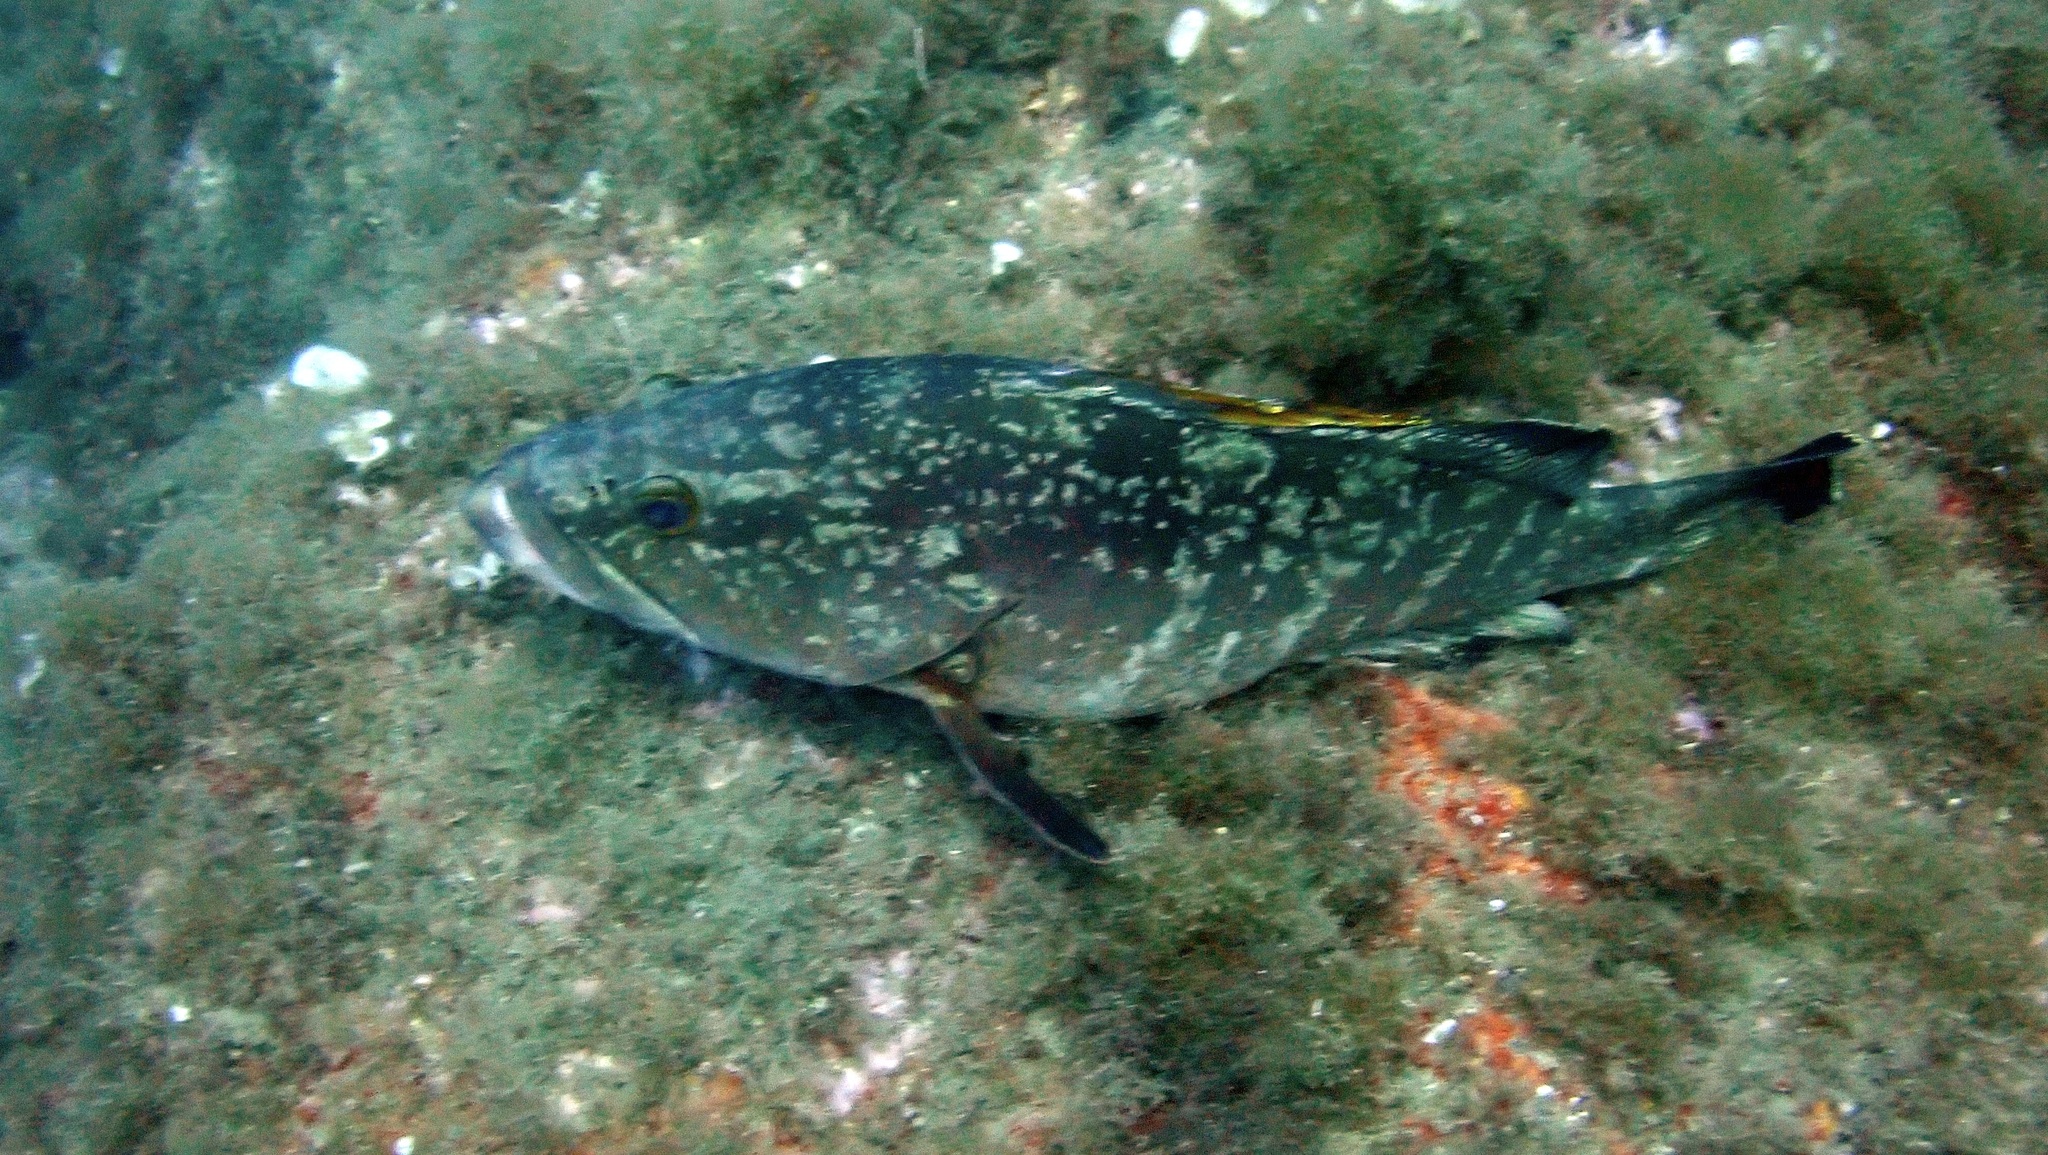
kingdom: Animalia
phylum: Chordata
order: Perciformes
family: Serranidae
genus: Epinephelus
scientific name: Epinephelus marginatus
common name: Dusky grouper
